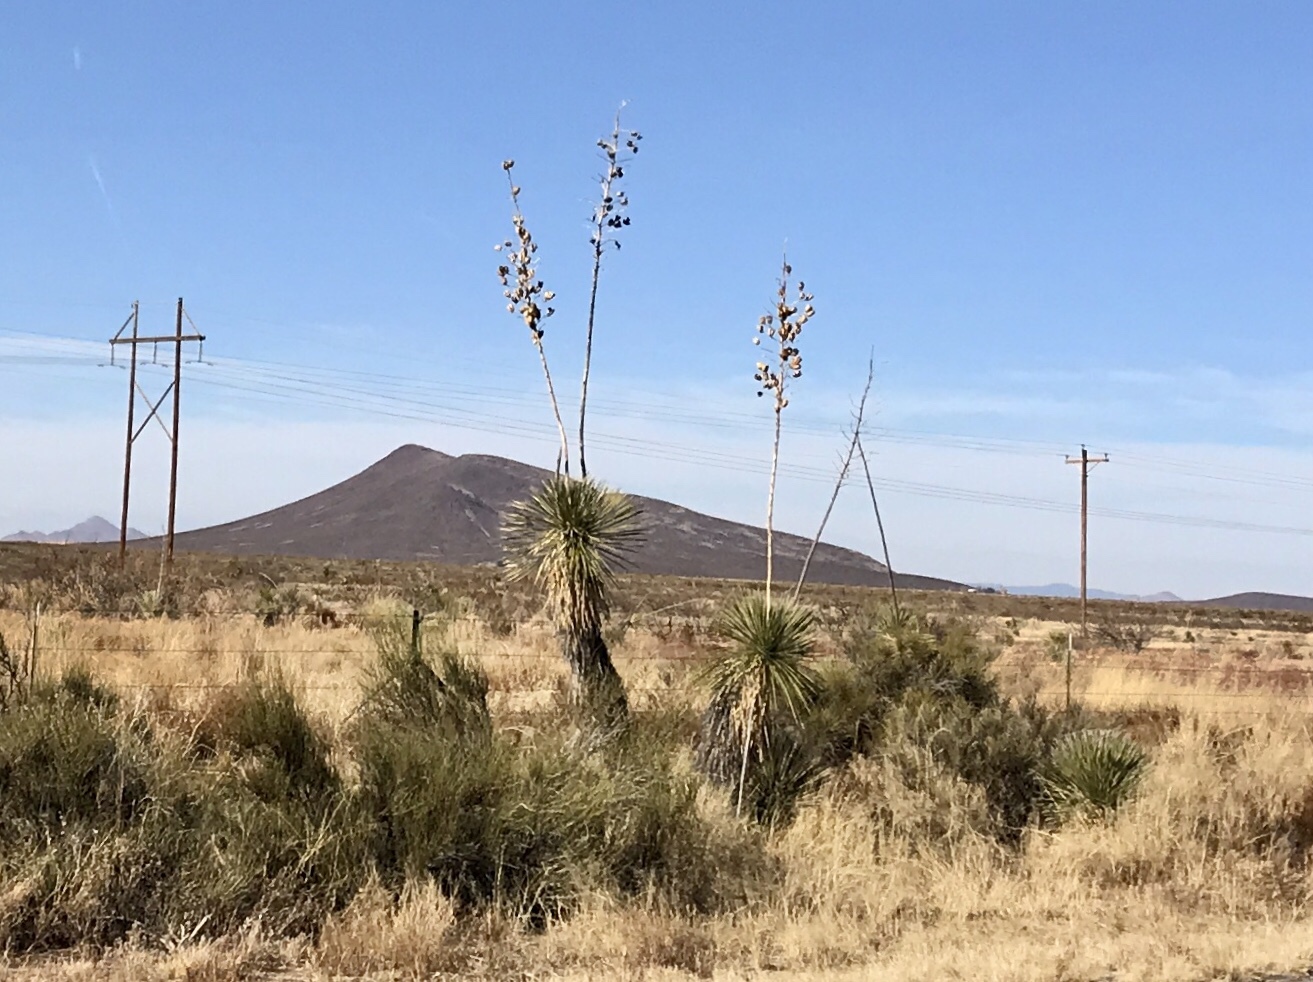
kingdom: Plantae
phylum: Tracheophyta
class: Liliopsida
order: Asparagales
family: Asparagaceae
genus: Yucca
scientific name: Yucca elata
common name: Palmella
